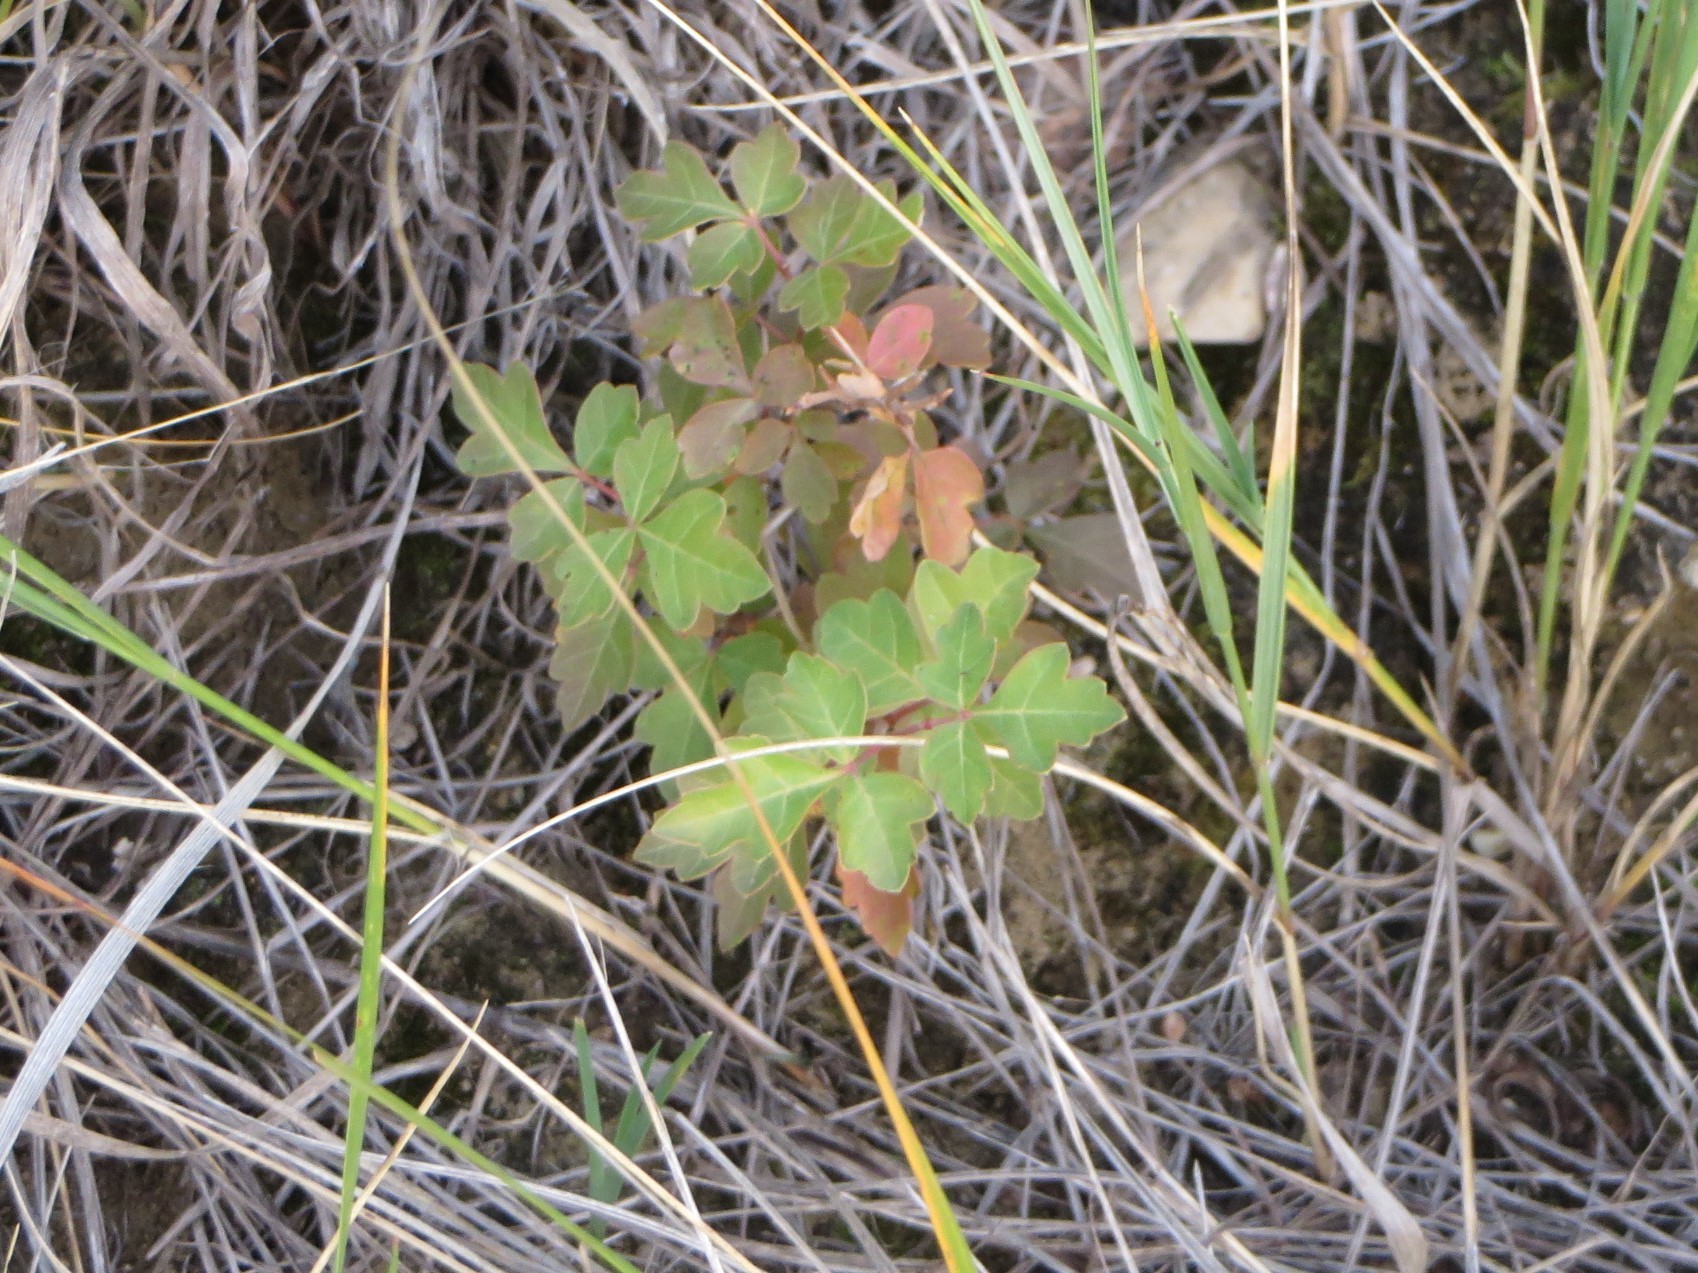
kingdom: Plantae
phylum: Tracheophyta
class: Magnoliopsida
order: Sapindales
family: Anacardiaceae
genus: Rhus
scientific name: Rhus aromatica
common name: Aromatic sumac
